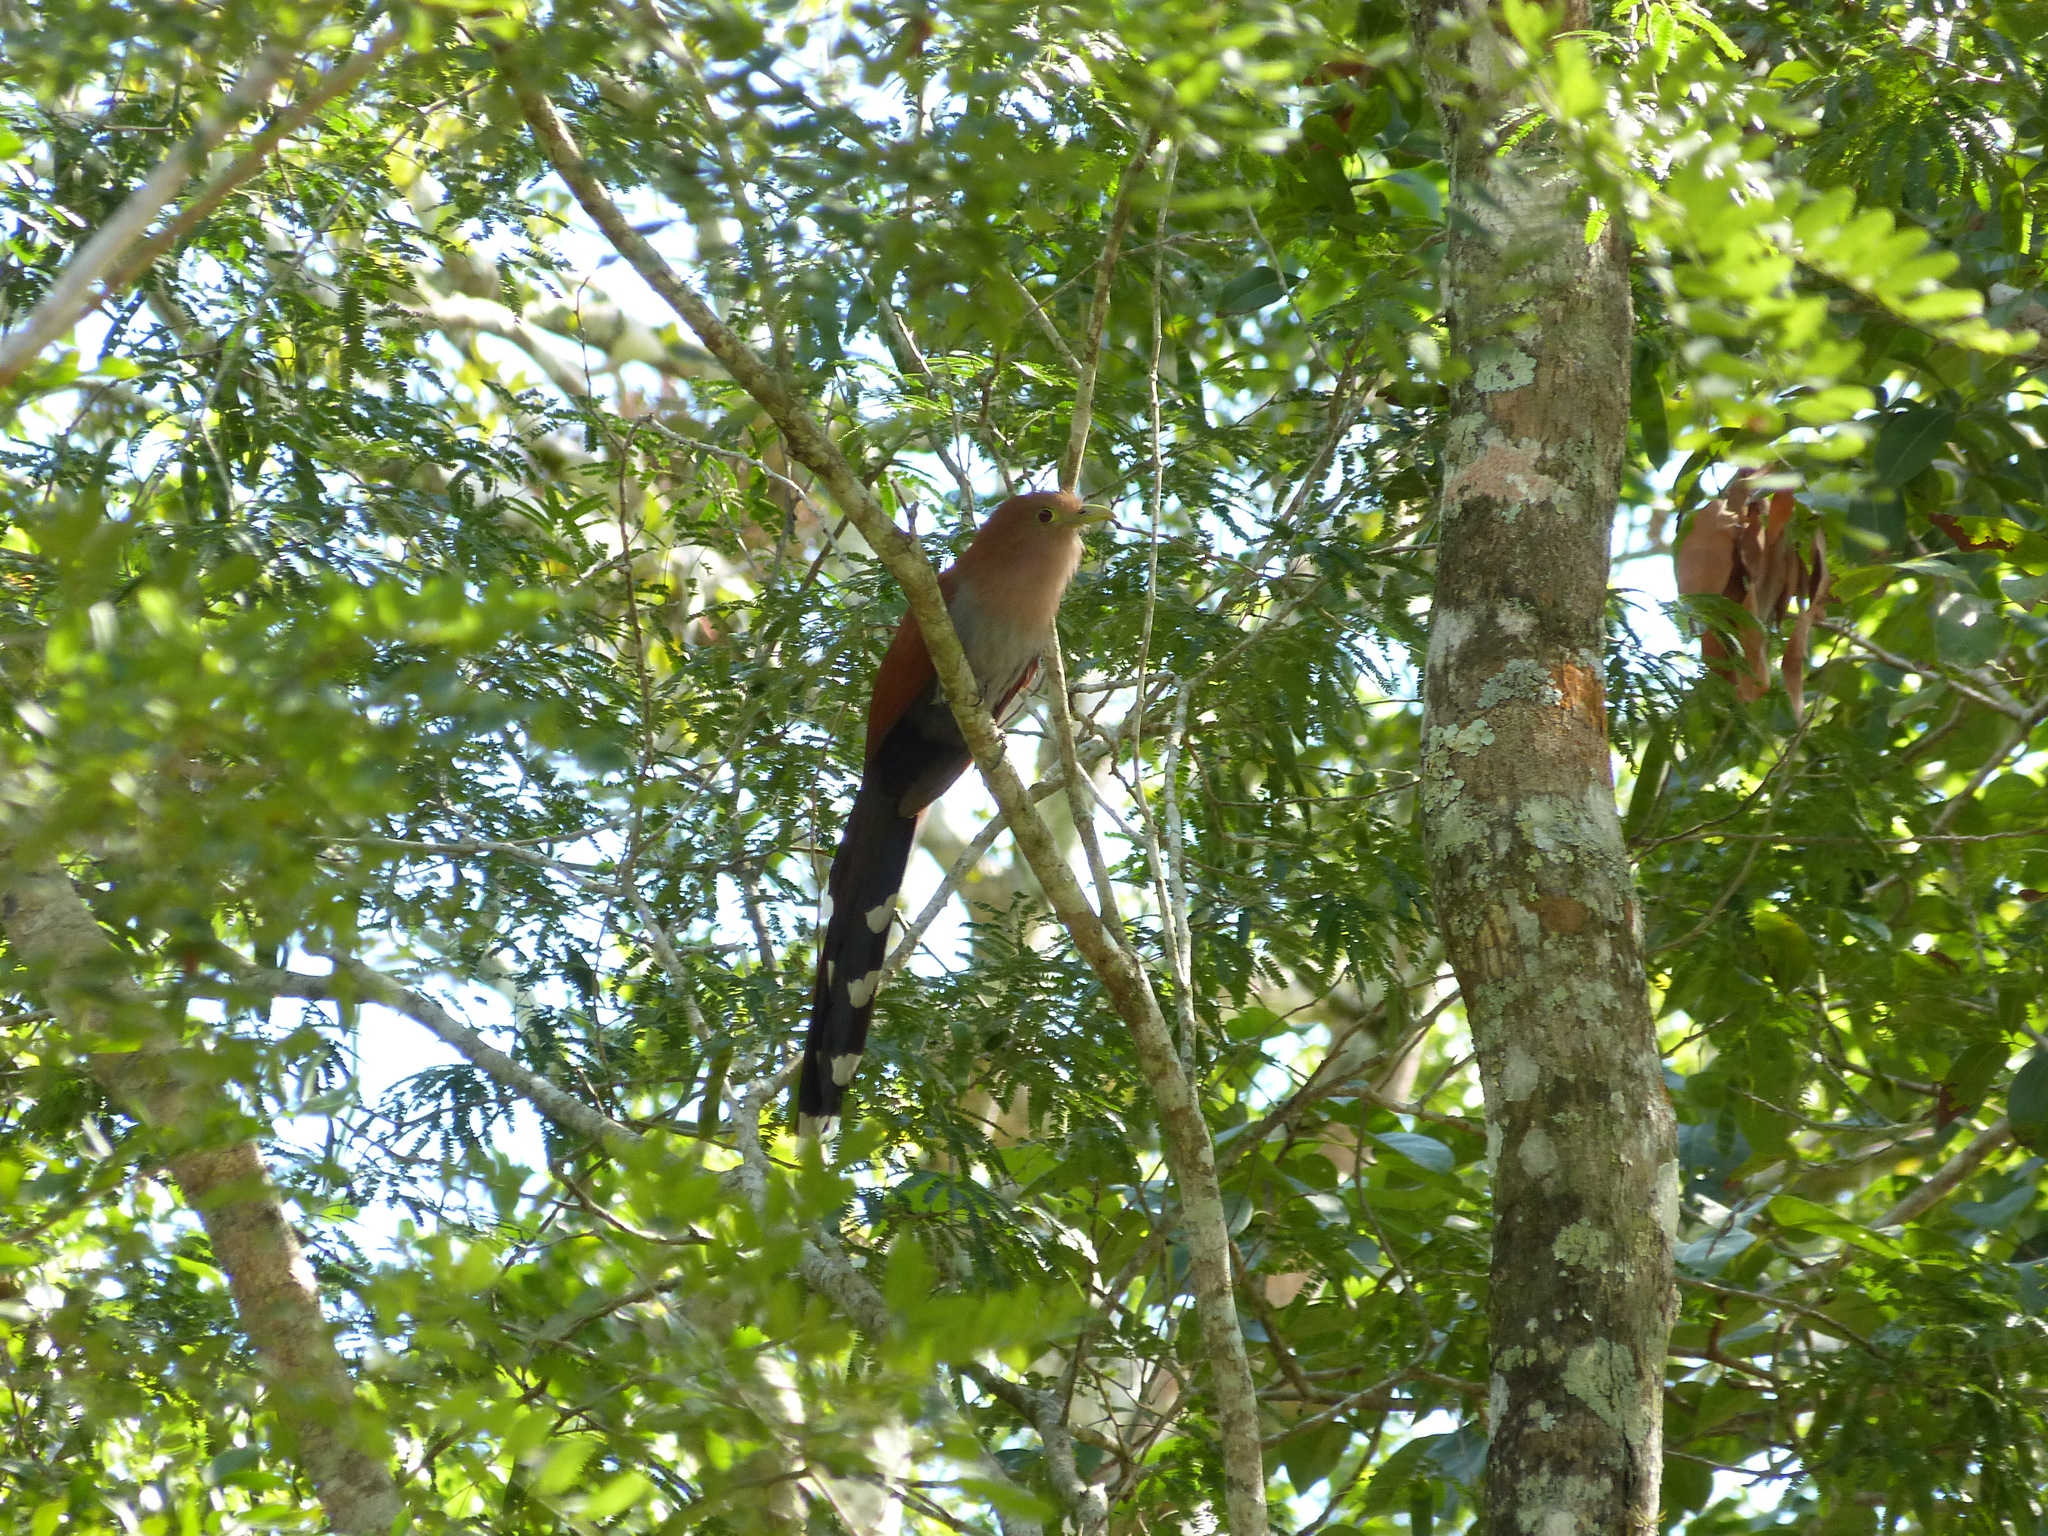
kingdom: Animalia
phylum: Chordata
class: Aves
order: Cuculiformes
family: Cuculidae
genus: Piaya
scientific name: Piaya cayana
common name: Squirrel cuckoo
